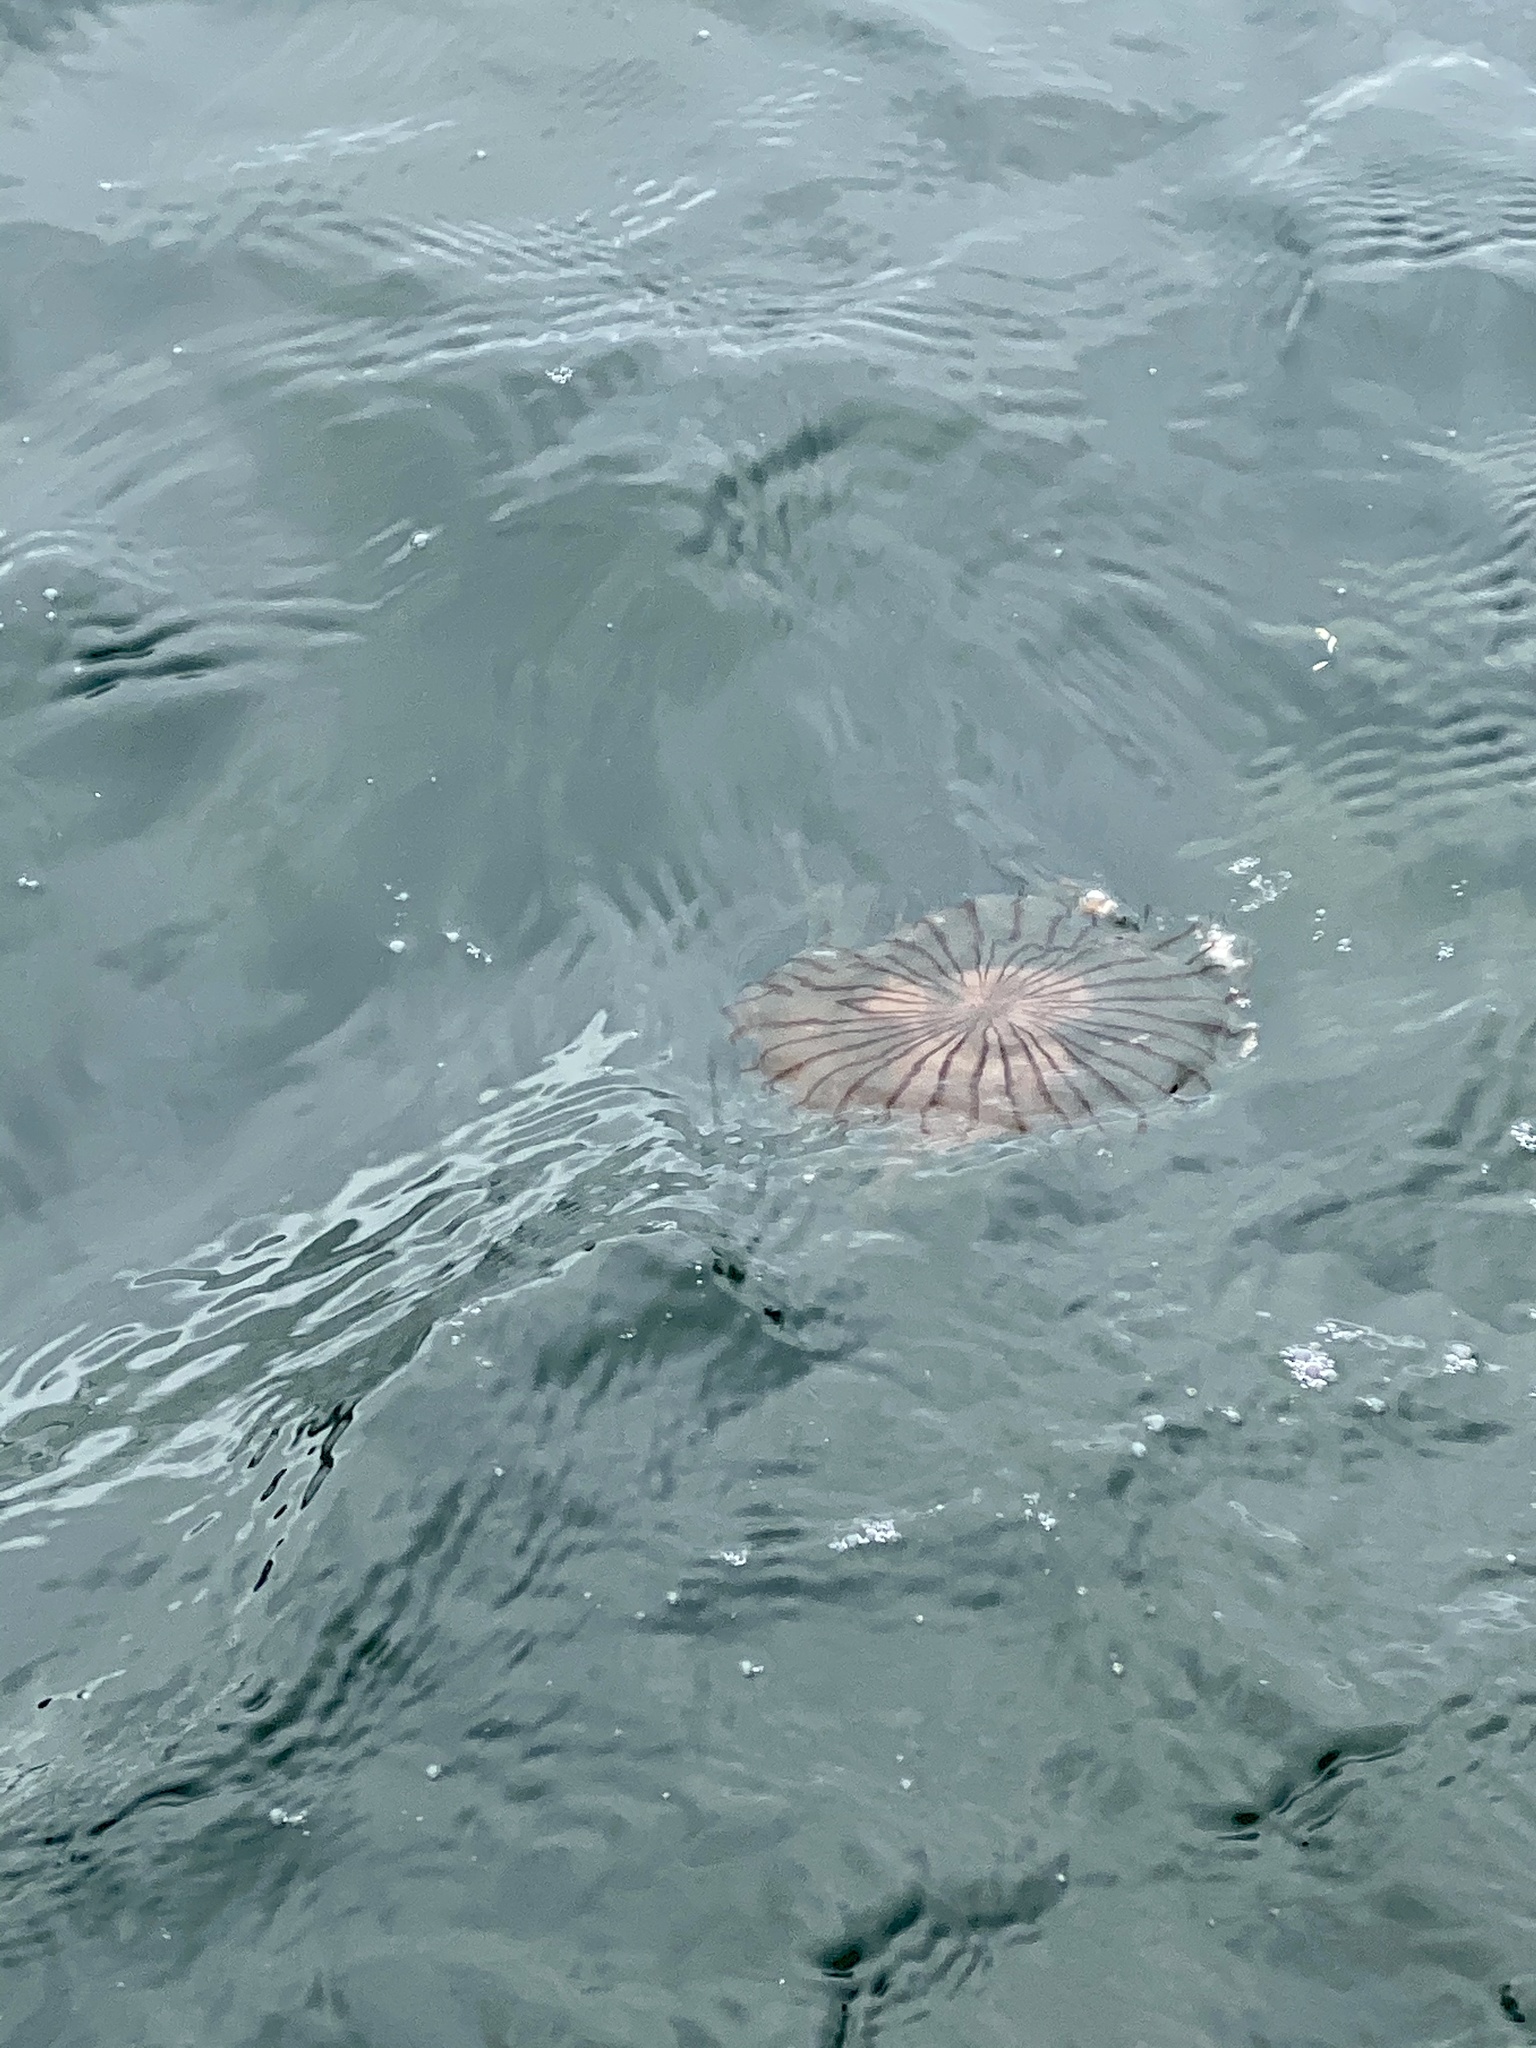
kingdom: Animalia
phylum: Cnidaria
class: Scyphozoa
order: Semaeostomeae
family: Pelagiidae
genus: Chrysaora
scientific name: Chrysaora pacifica
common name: Sea nettle
